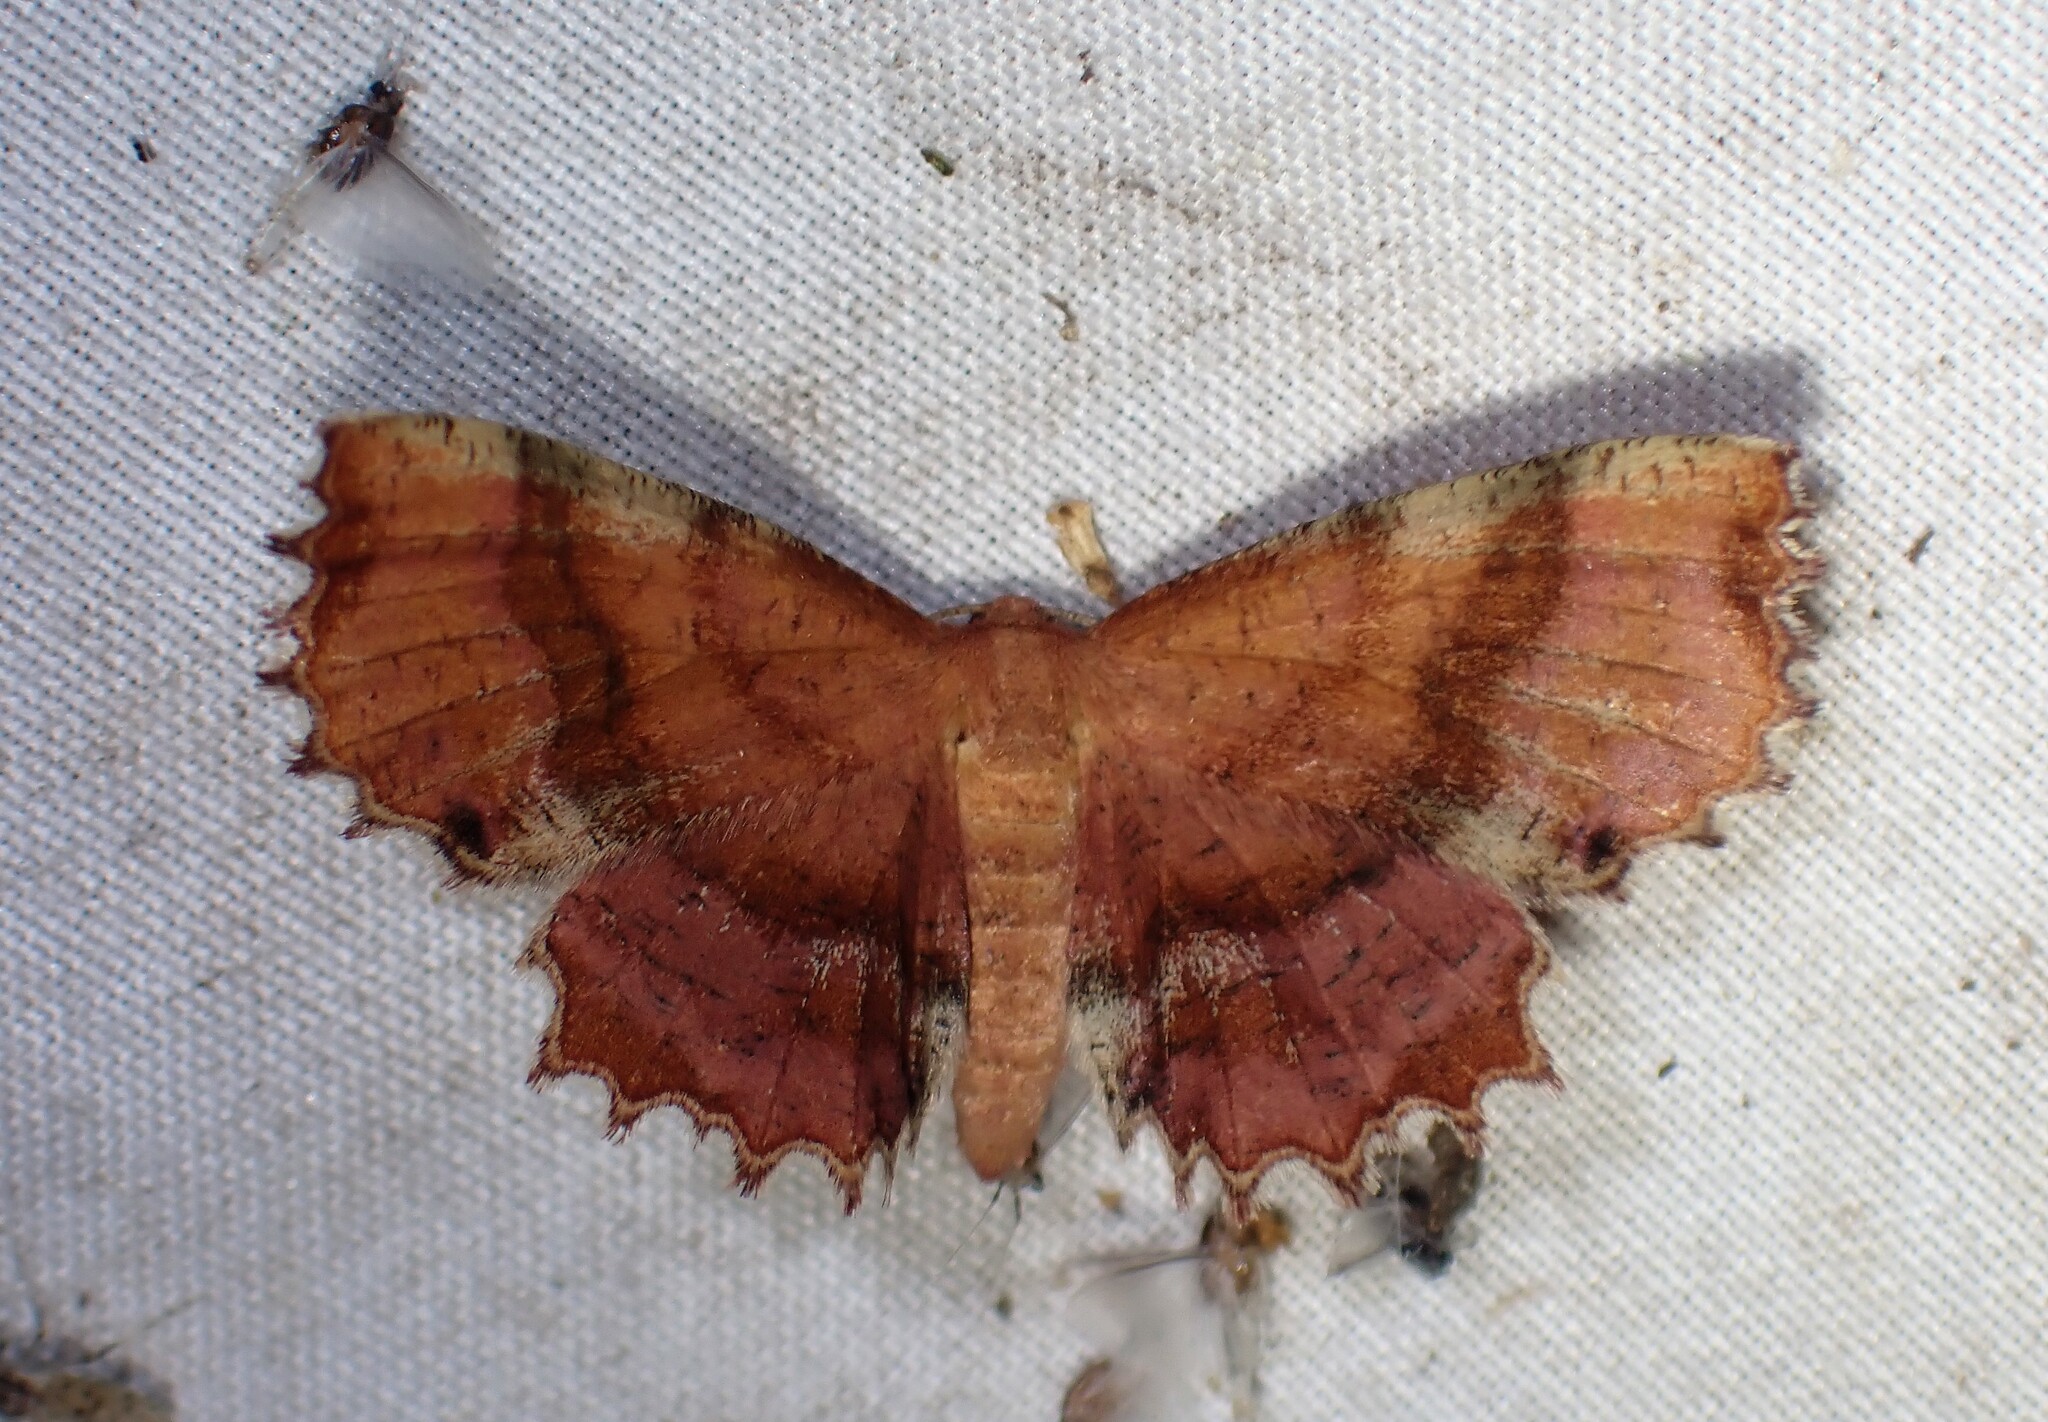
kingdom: Animalia
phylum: Arthropoda
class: Insecta
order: Lepidoptera
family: Geometridae
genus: Cepphis
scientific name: Cepphis armataria
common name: Scallop moth
